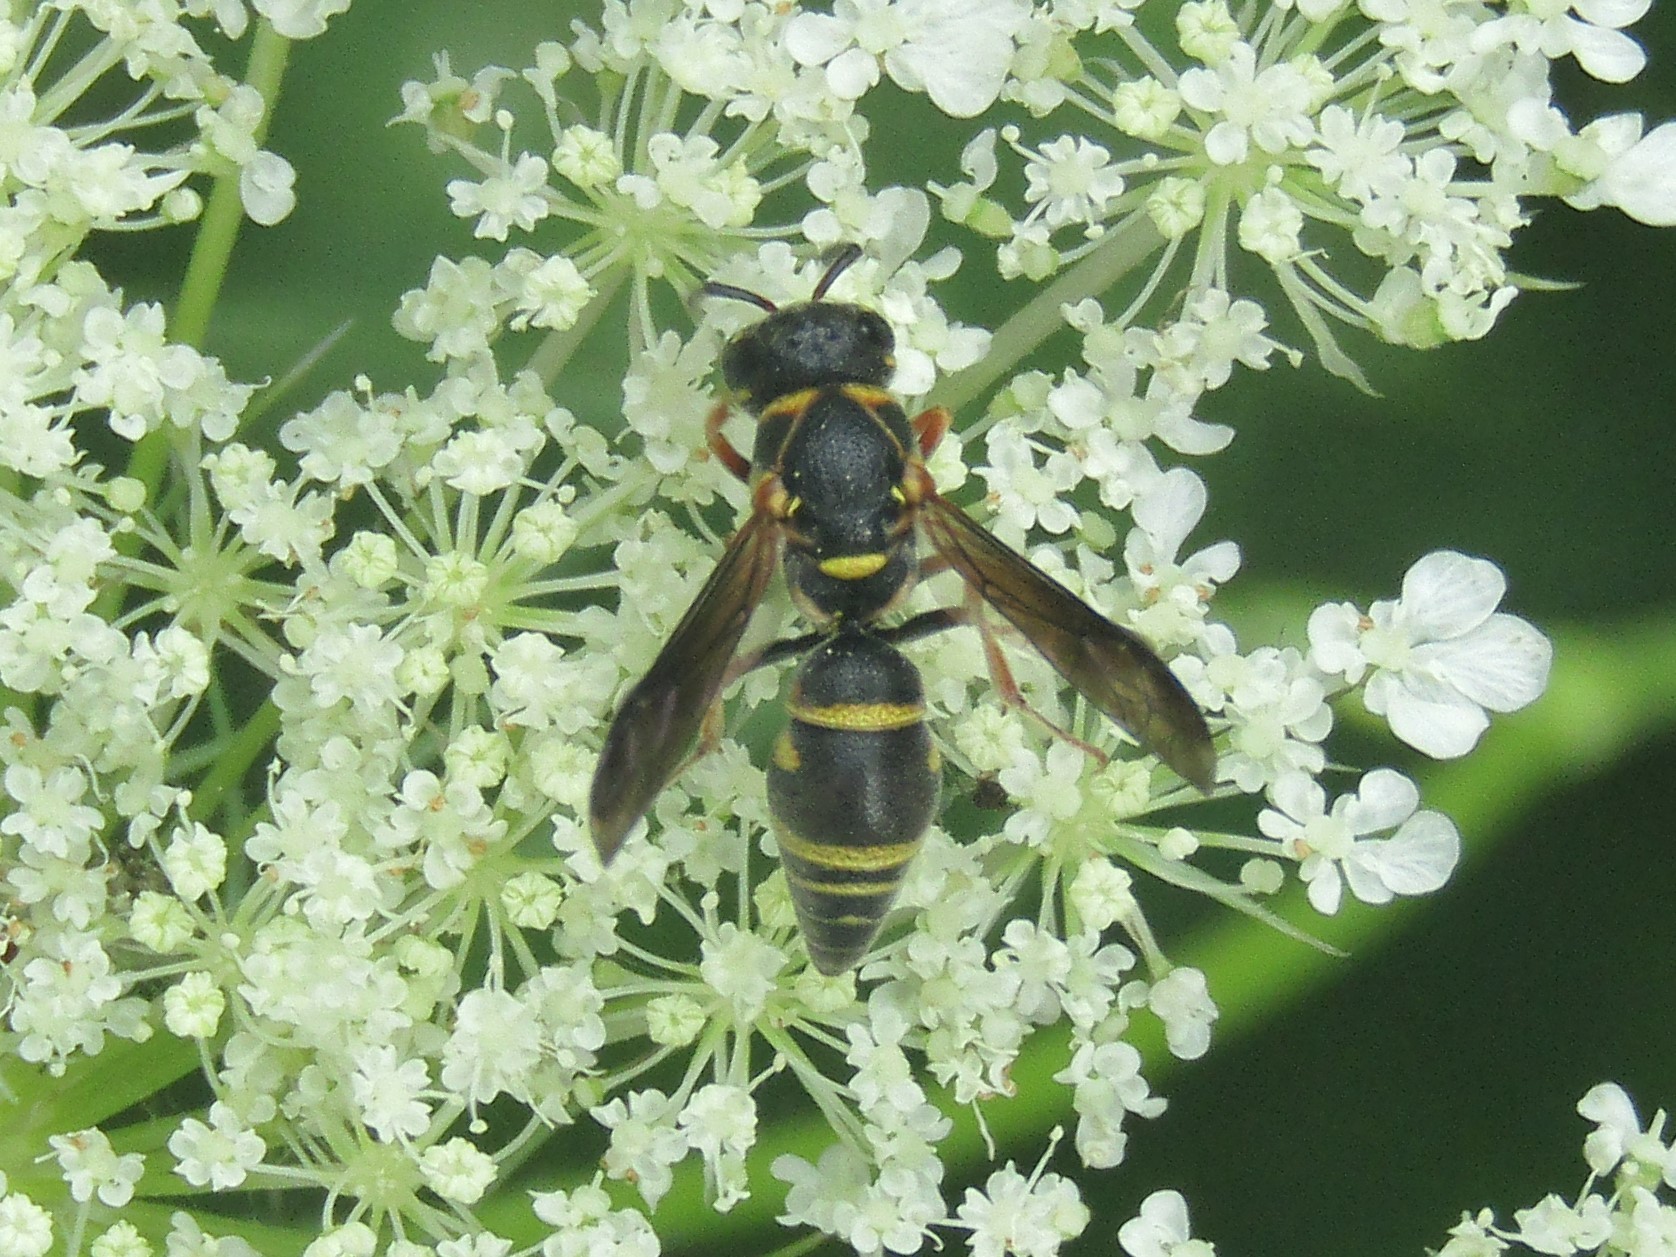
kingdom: Animalia
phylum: Arthropoda
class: Insecta
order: Hymenoptera
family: Eumenidae
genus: Stenodynerus
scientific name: Stenodynerus
